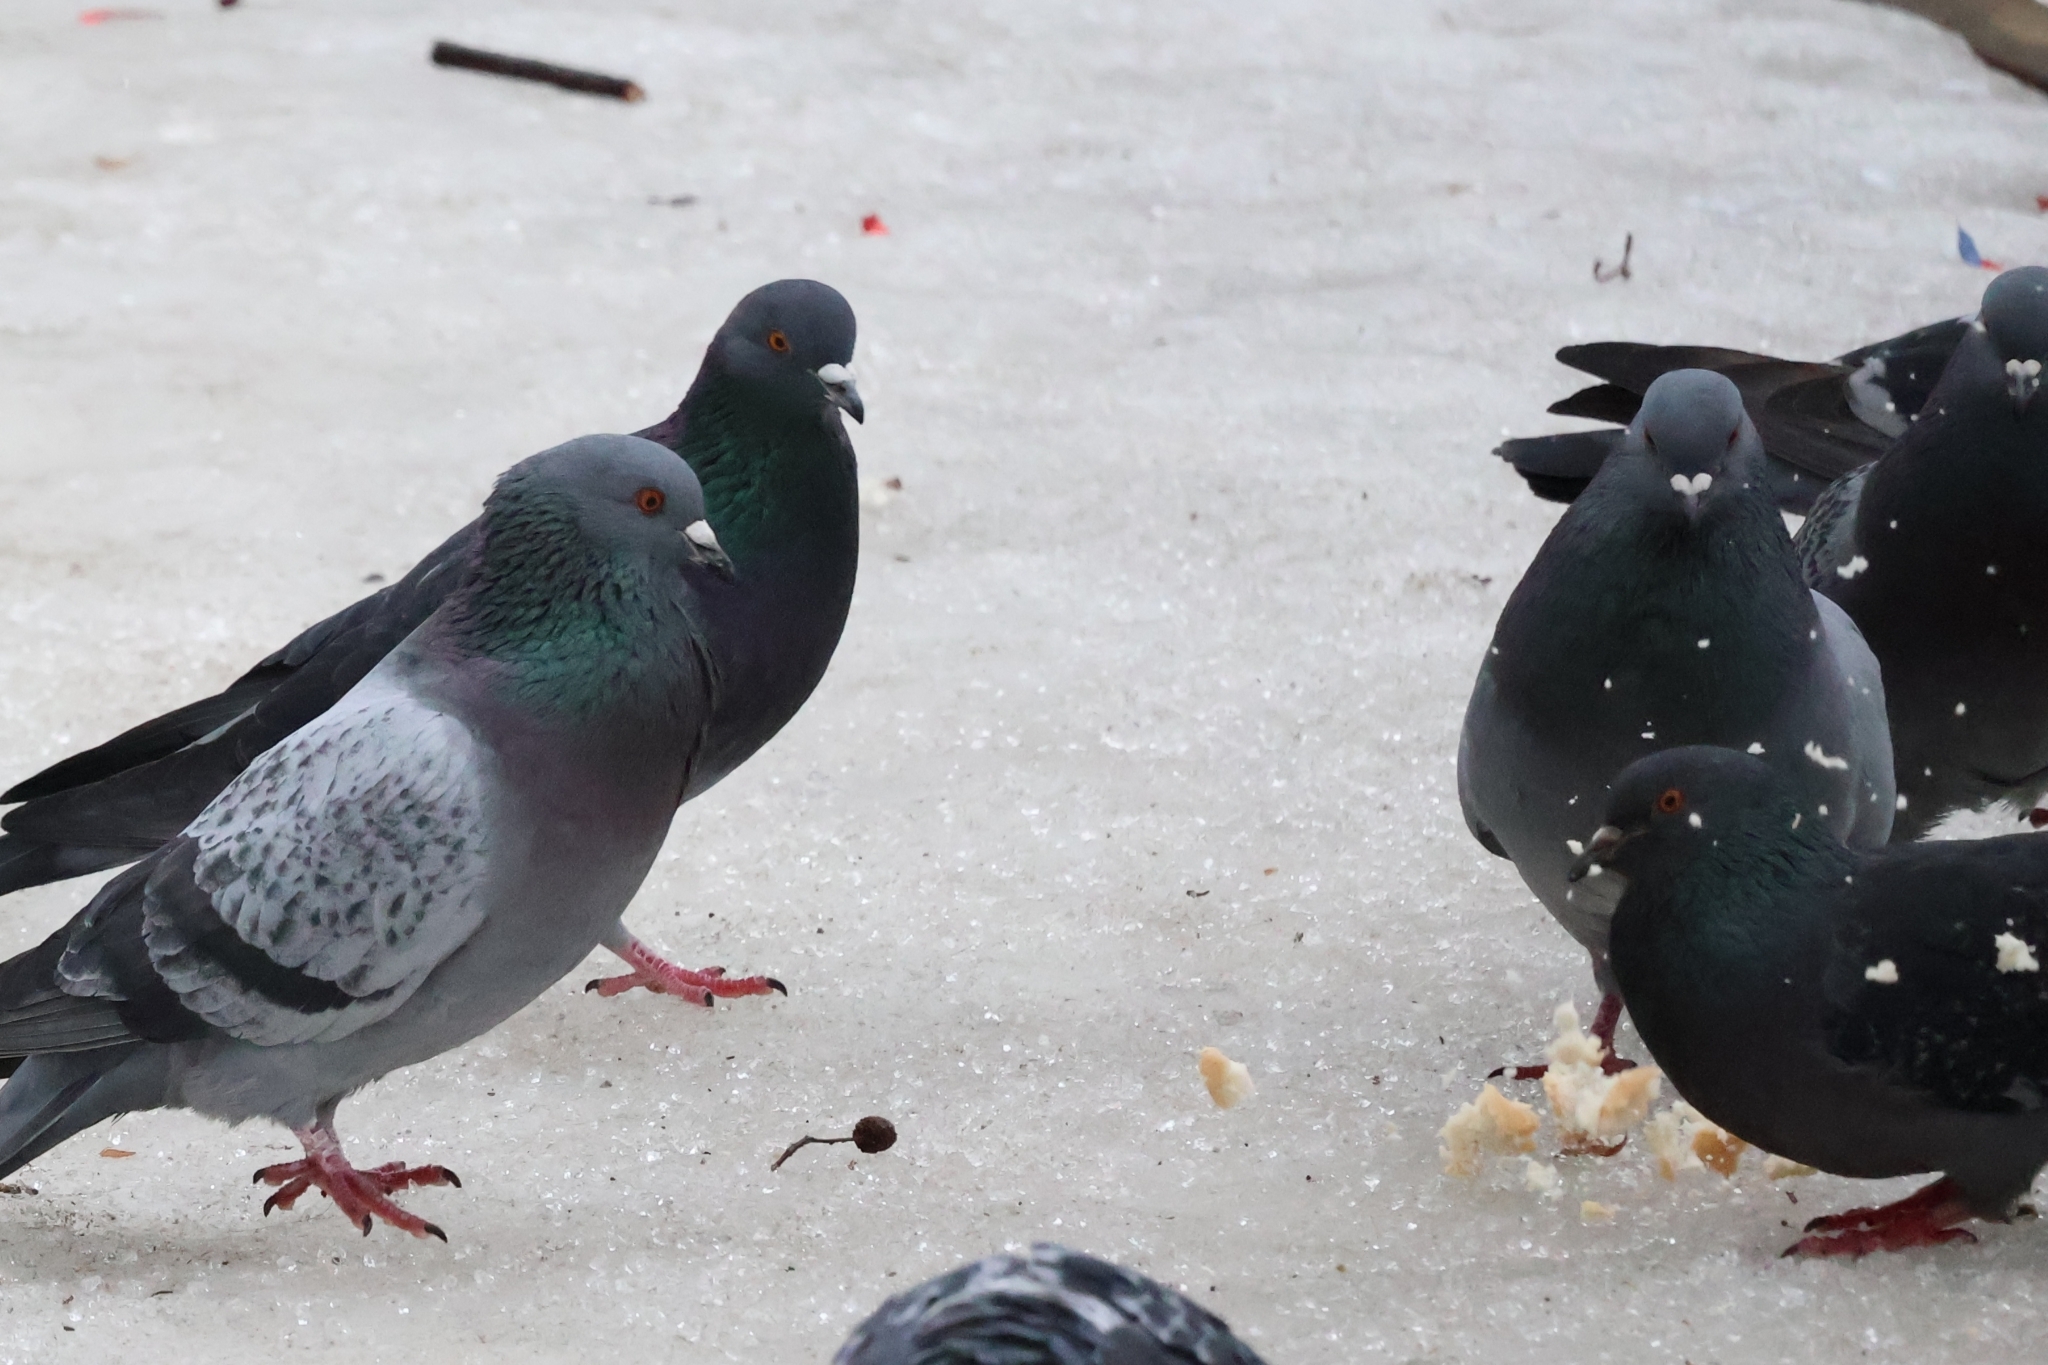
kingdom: Animalia
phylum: Chordata
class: Aves
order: Columbiformes
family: Columbidae
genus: Columba
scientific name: Columba livia
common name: Rock pigeon
